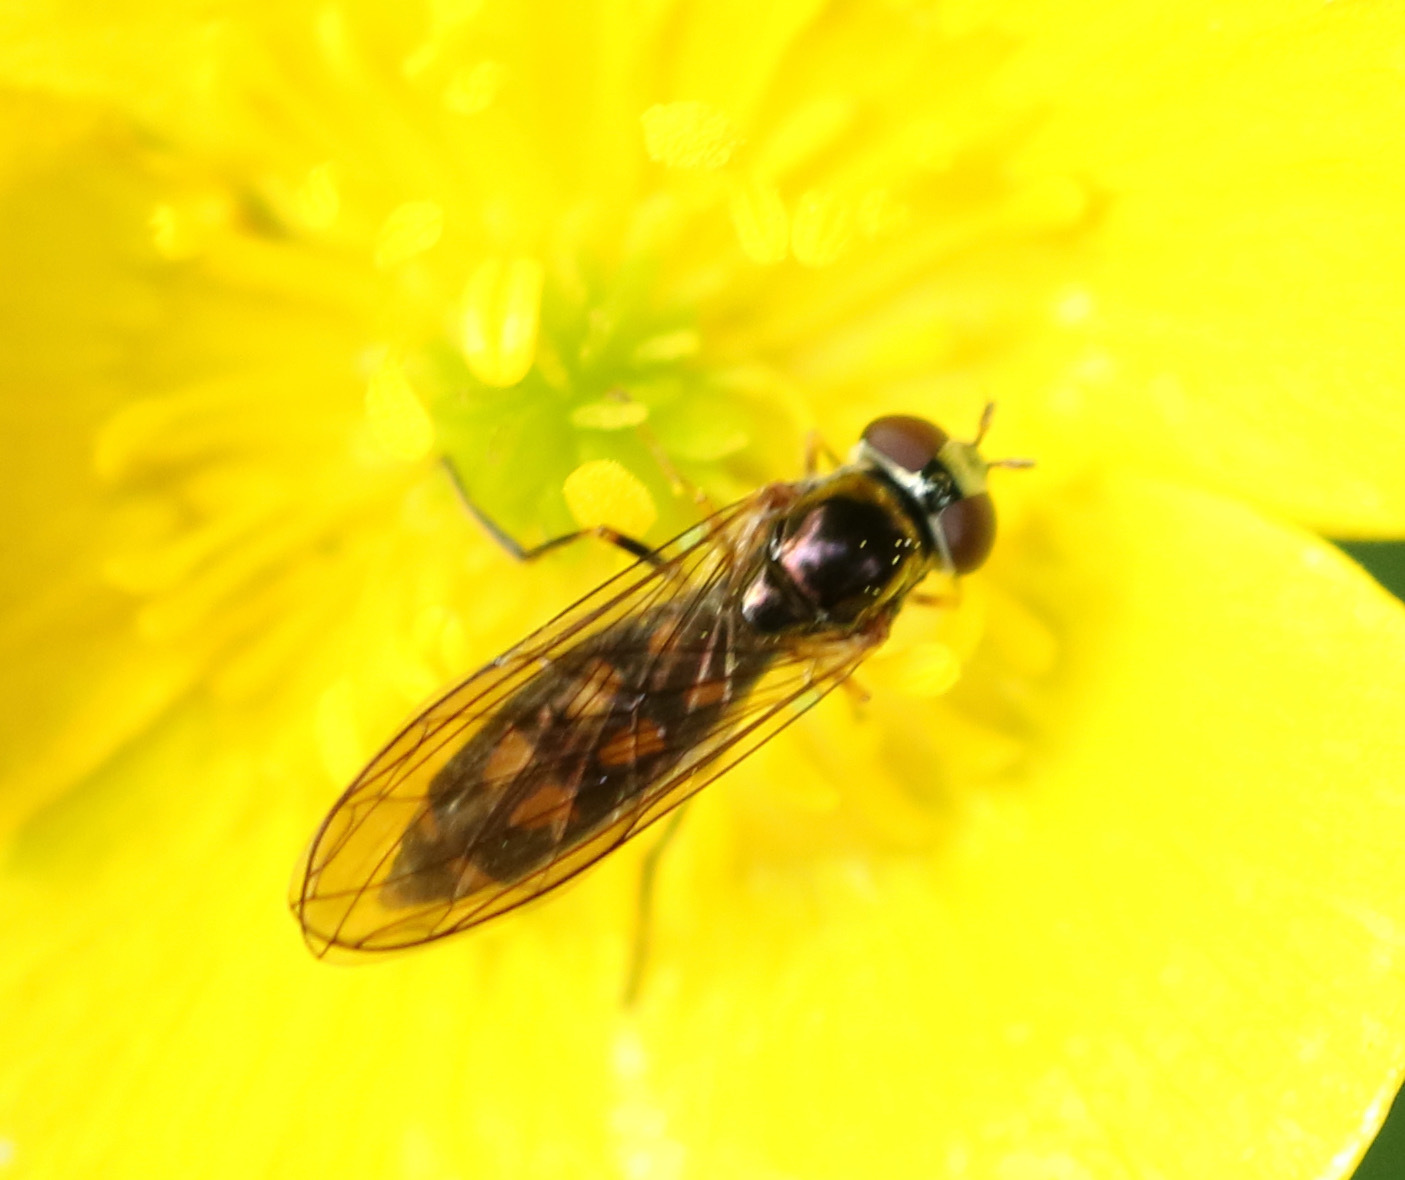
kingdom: Animalia
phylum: Arthropoda
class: Insecta
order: Diptera
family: Syrphidae
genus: Melanostoma
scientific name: Melanostoma scalare
